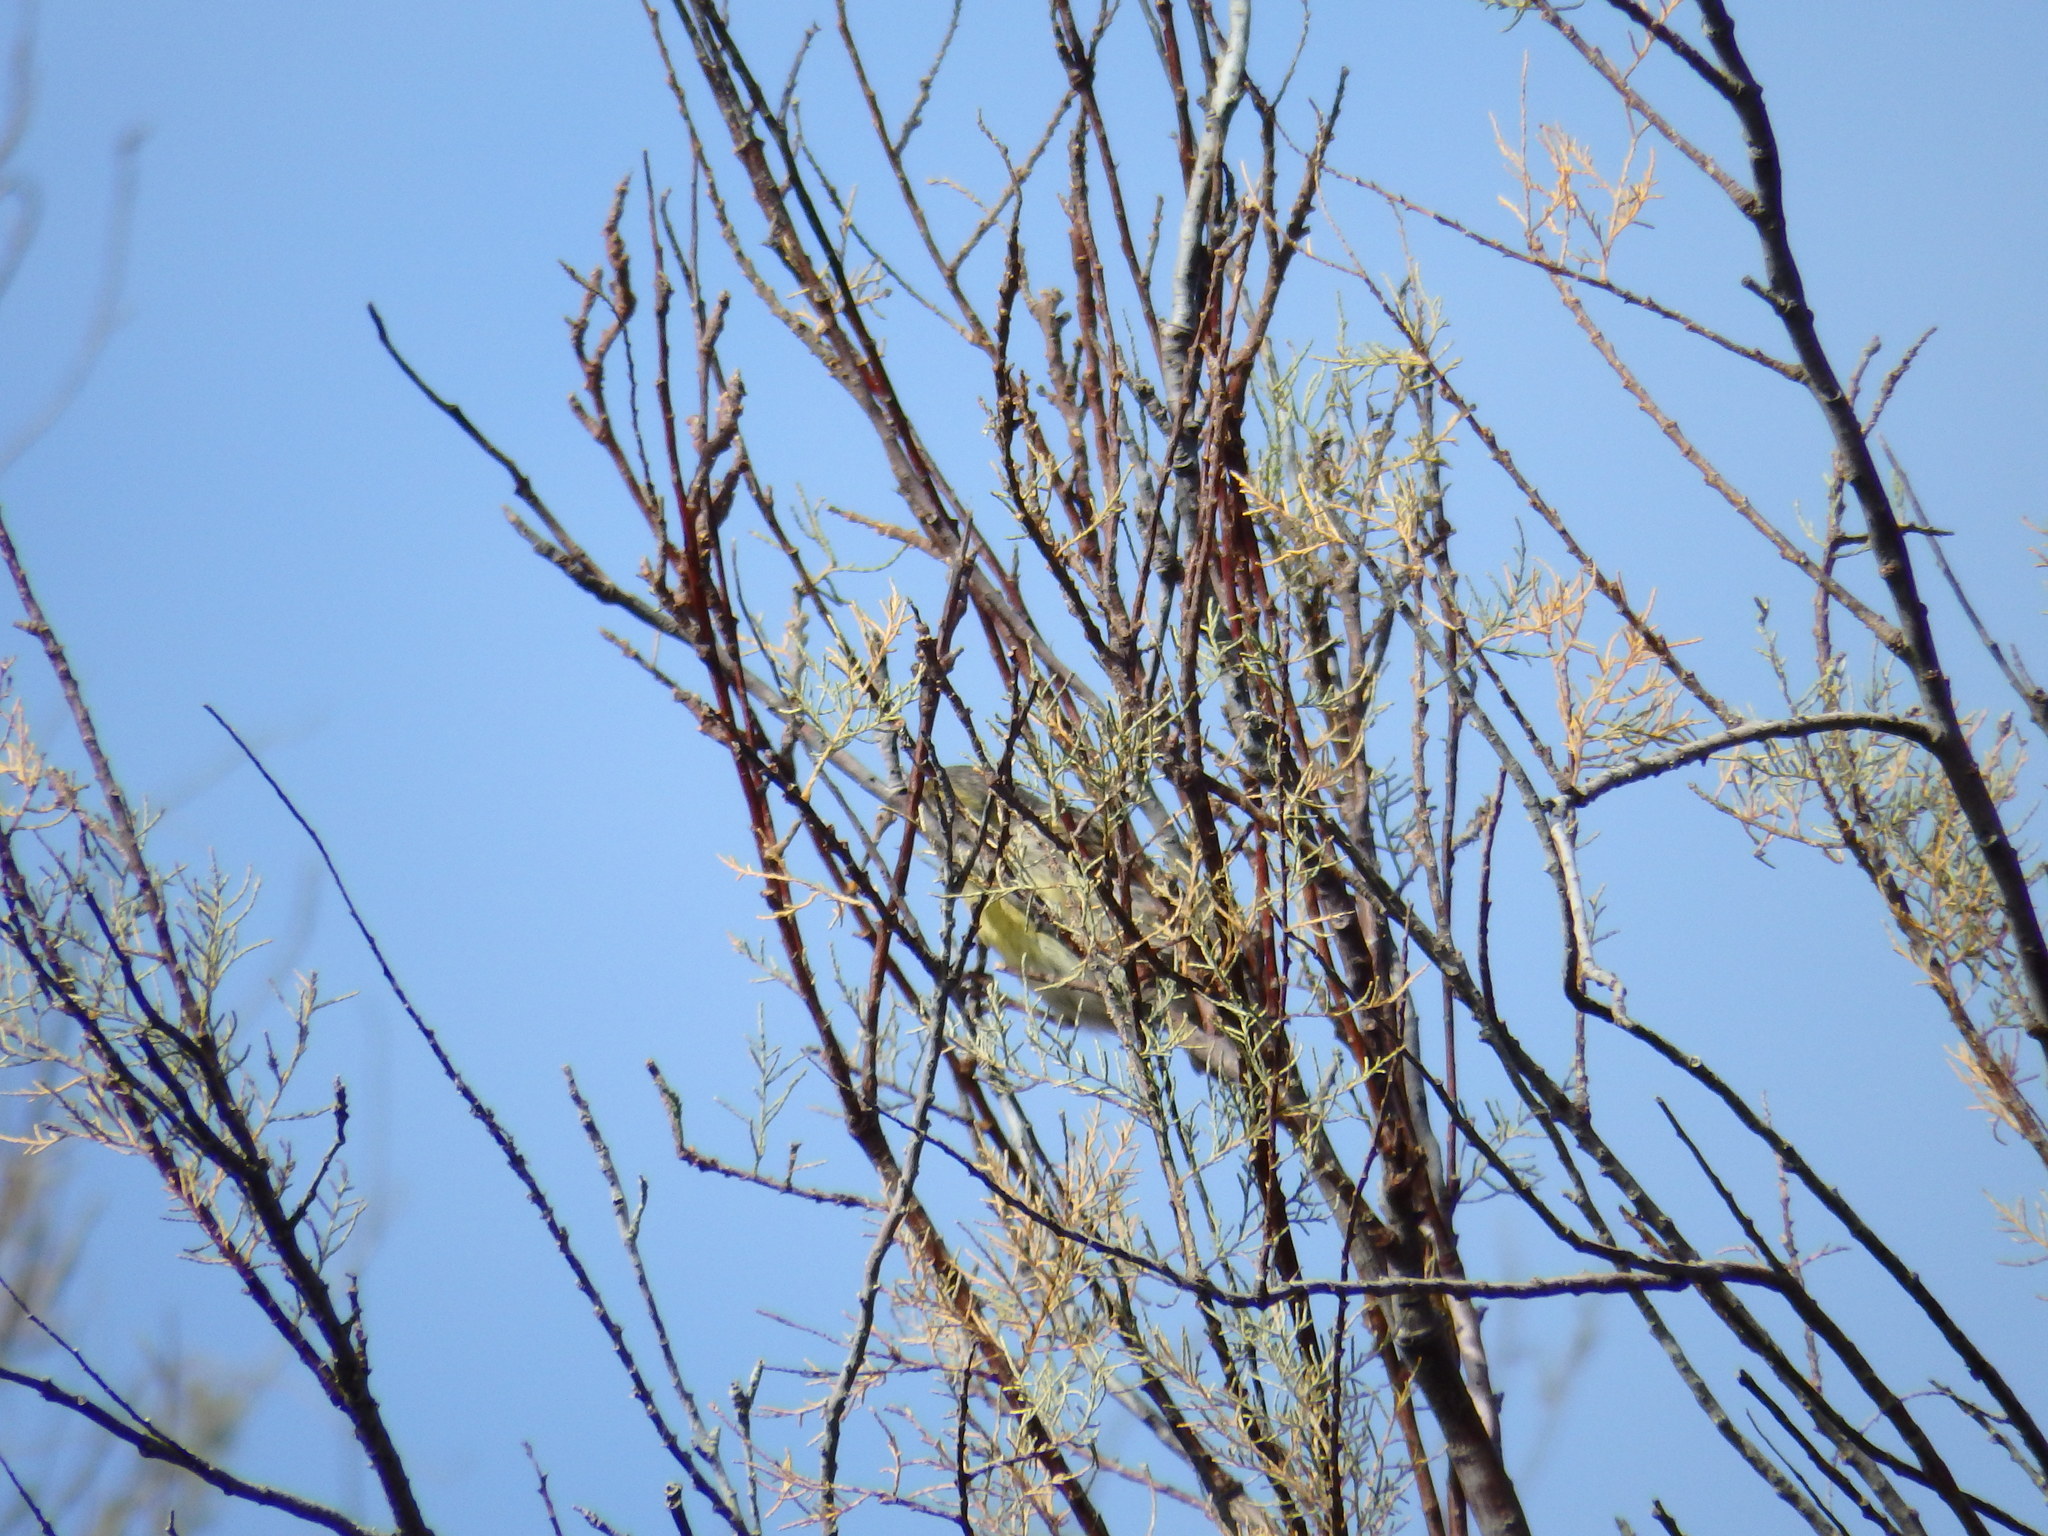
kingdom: Plantae
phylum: Tracheophyta
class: Magnoliopsida
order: Caryophyllales
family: Tamaricaceae
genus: Tamarix
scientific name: Tamarix gallica
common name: Tamarisk
